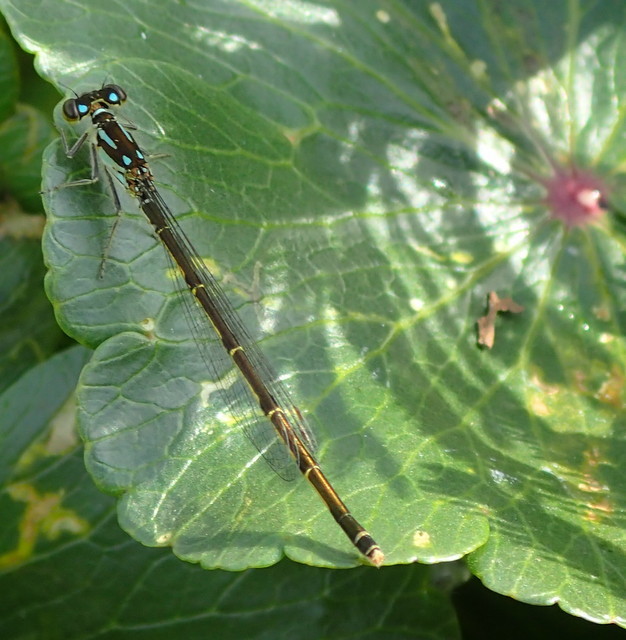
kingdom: Animalia
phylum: Arthropoda
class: Insecta
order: Odonata
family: Coenagrionidae
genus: Ischnura
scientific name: Ischnura posita
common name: Fragile forktail
